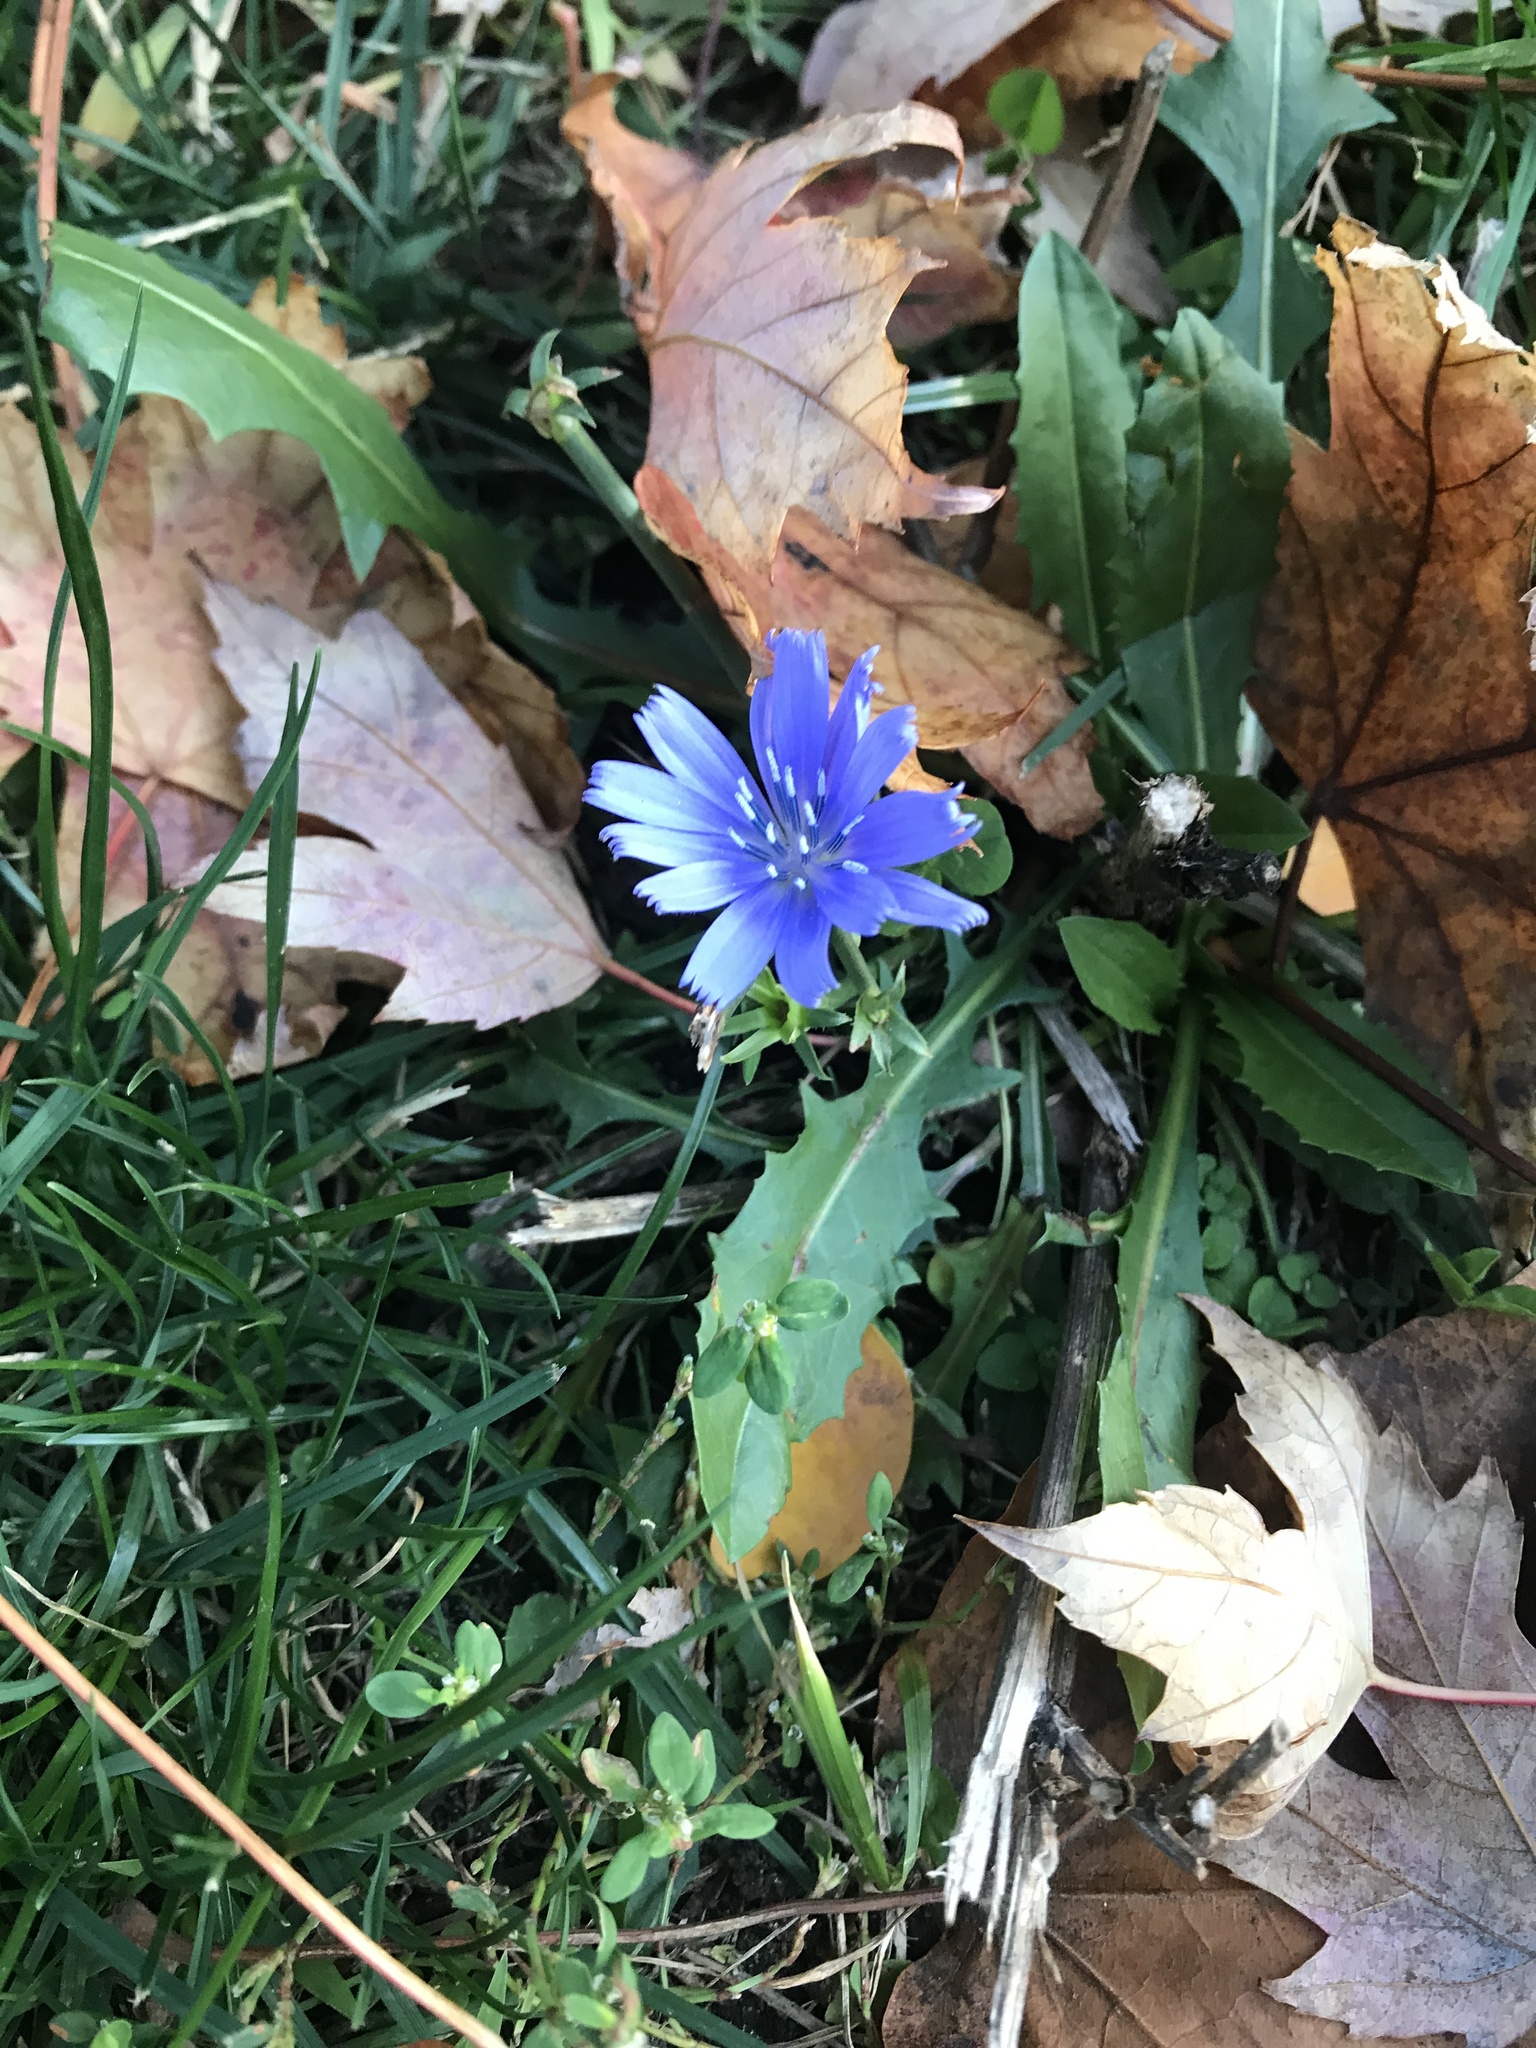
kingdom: Plantae
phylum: Tracheophyta
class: Magnoliopsida
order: Asterales
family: Asteraceae
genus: Cichorium
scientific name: Cichorium intybus
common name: Chicory
